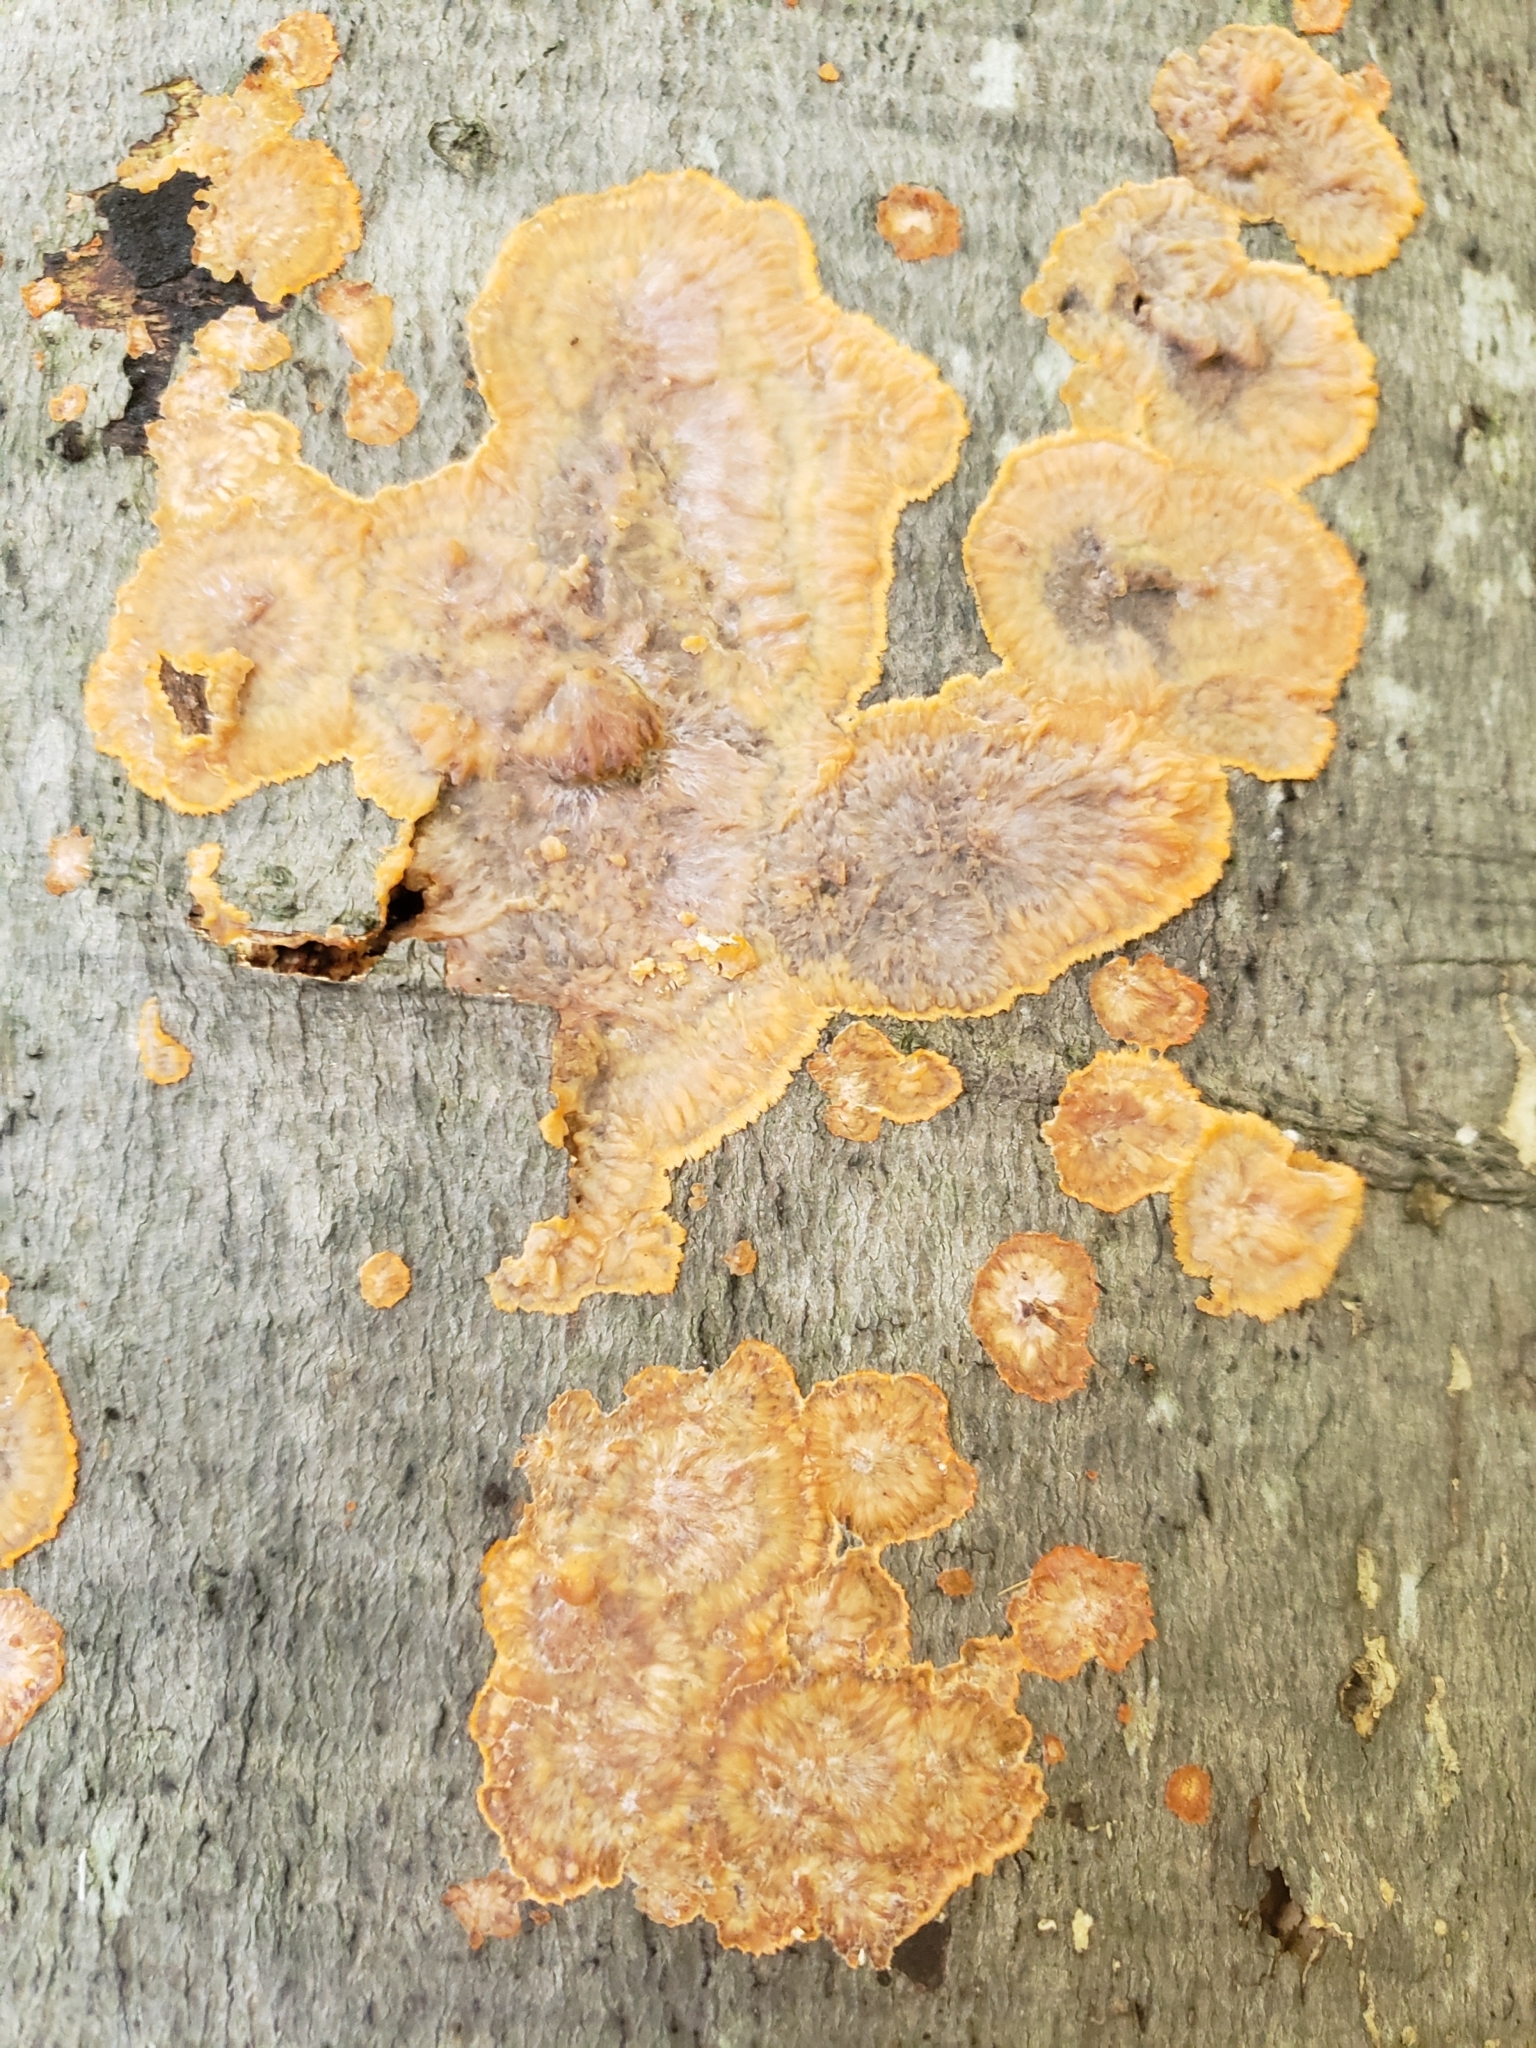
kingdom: Fungi
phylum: Basidiomycota
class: Agaricomycetes
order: Polyporales
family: Meruliaceae
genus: Phlebia
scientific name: Phlebia radiata
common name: Wrinkled crust
